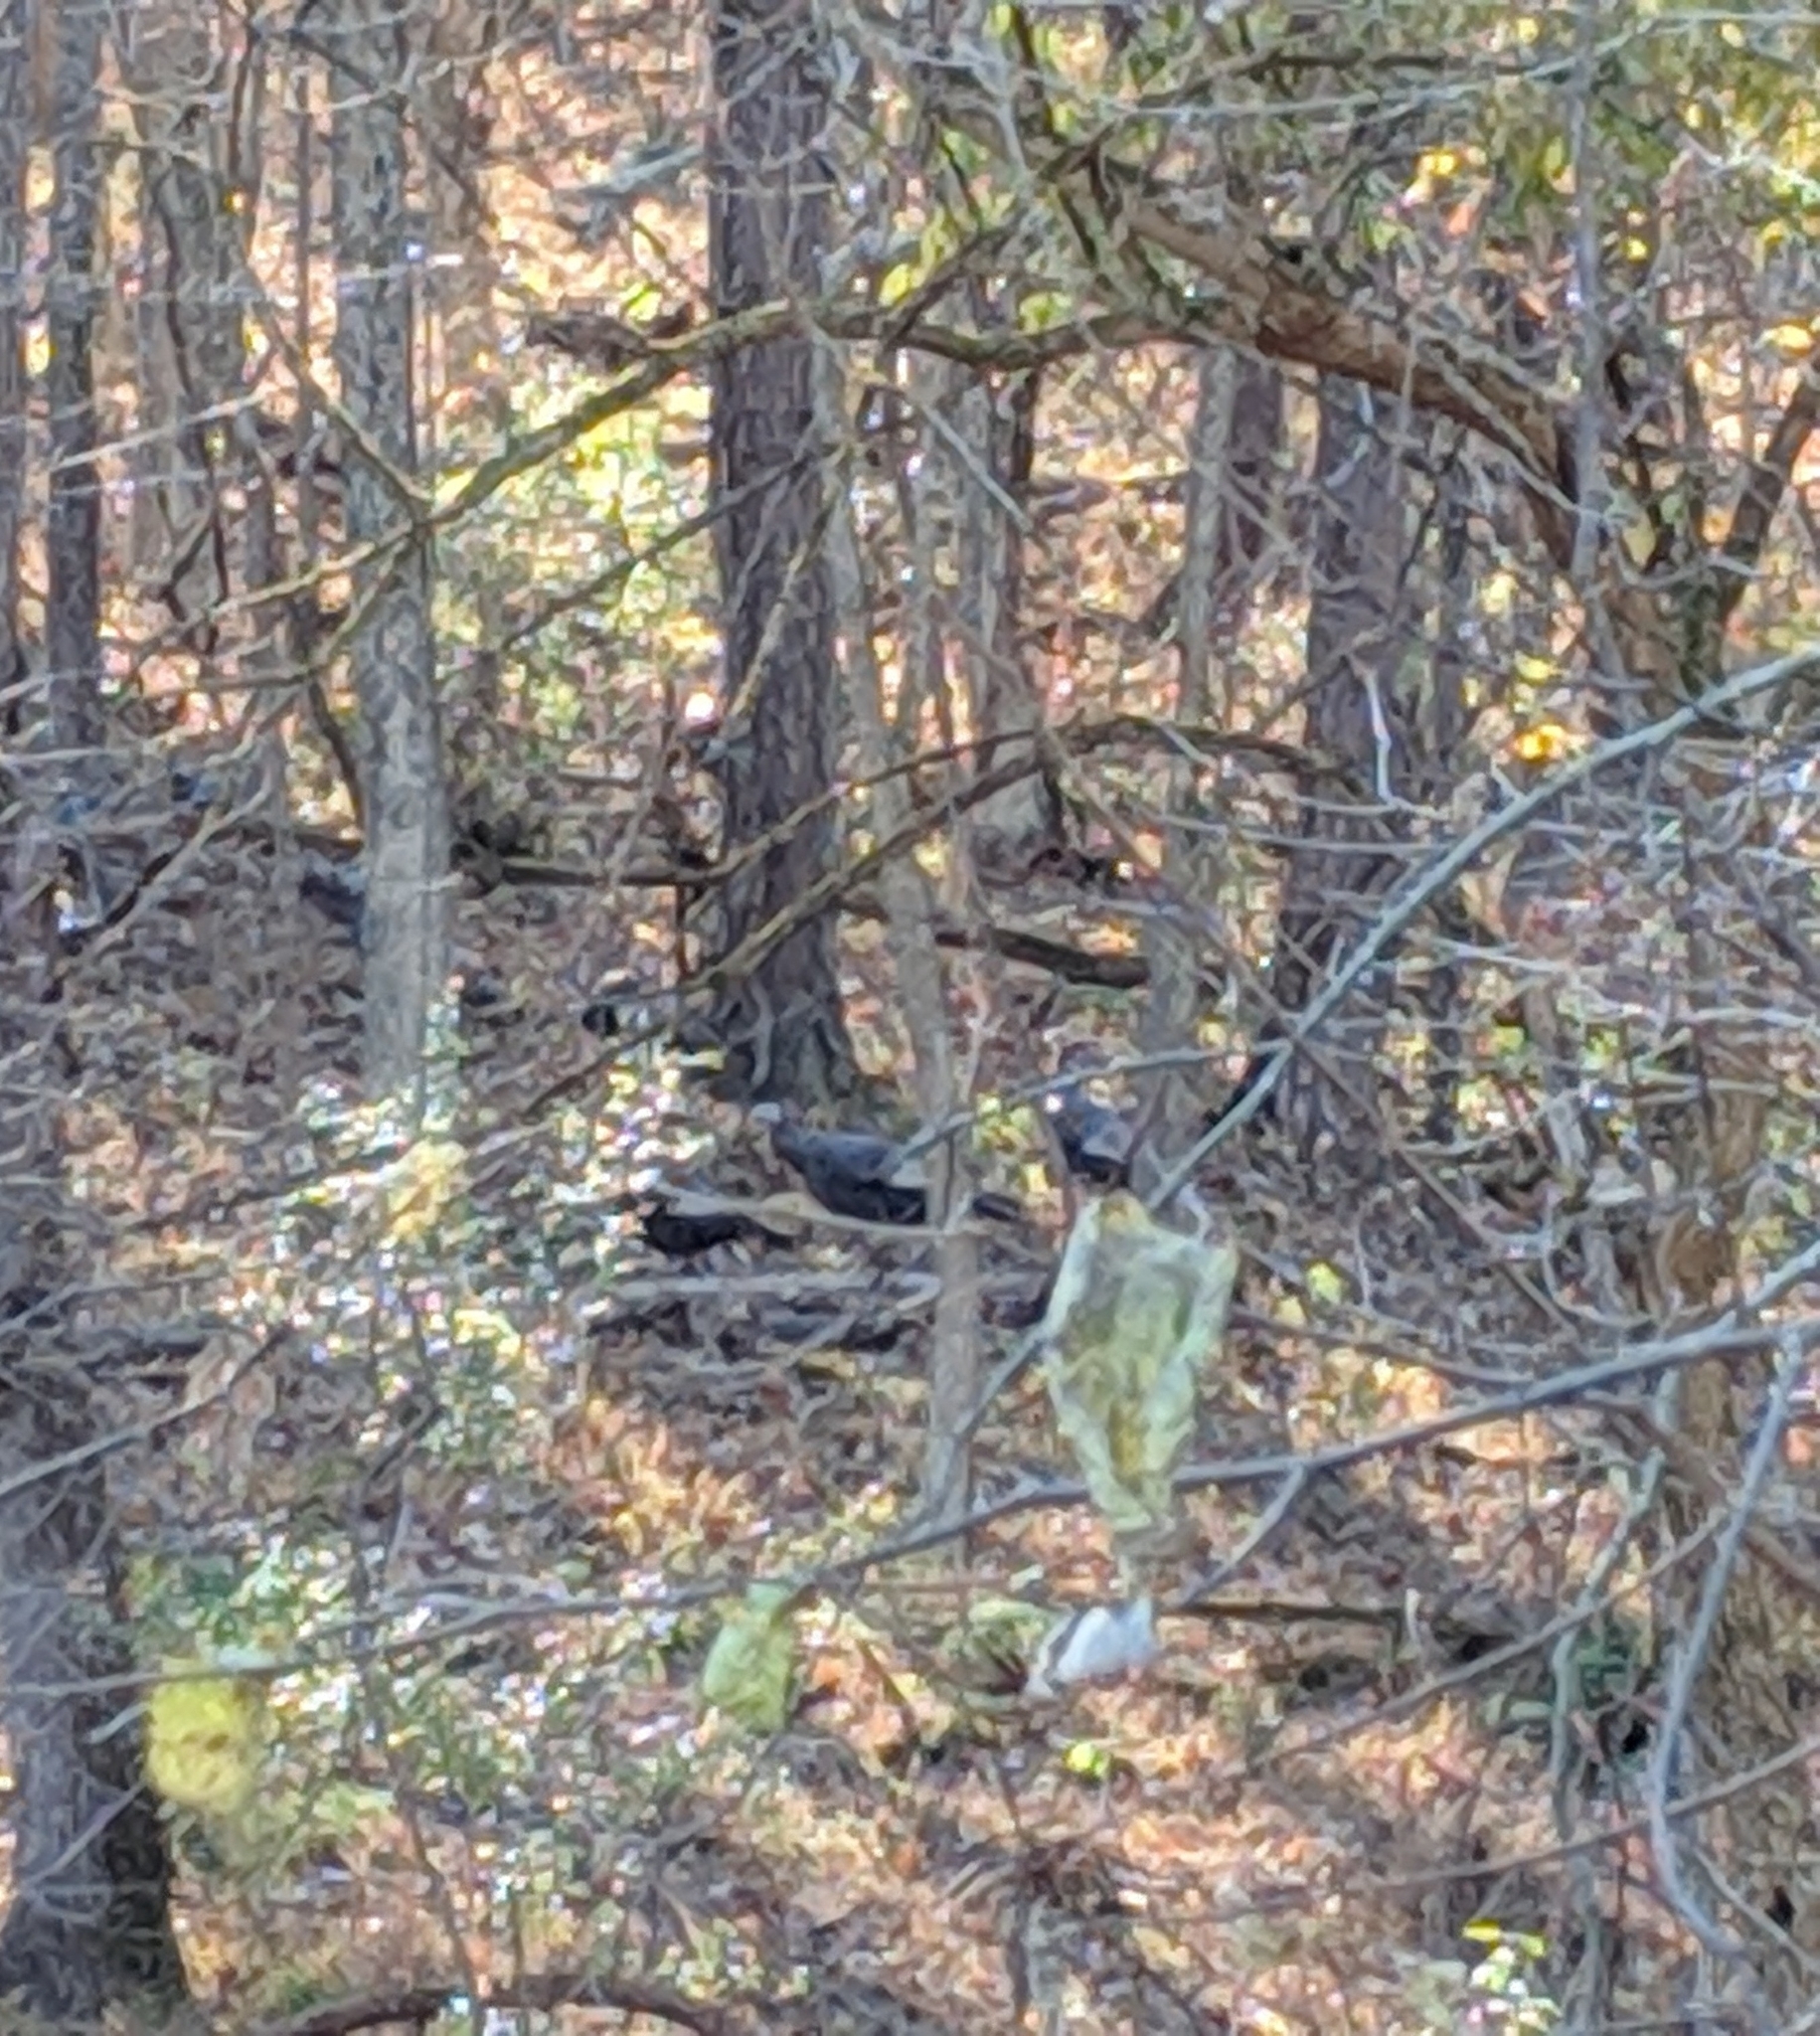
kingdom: Animalia
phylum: Chordata
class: Aves
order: Galliformes
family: Phasianidae
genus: Meleagris
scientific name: Meleagris gallopavo
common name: Wild turkey
